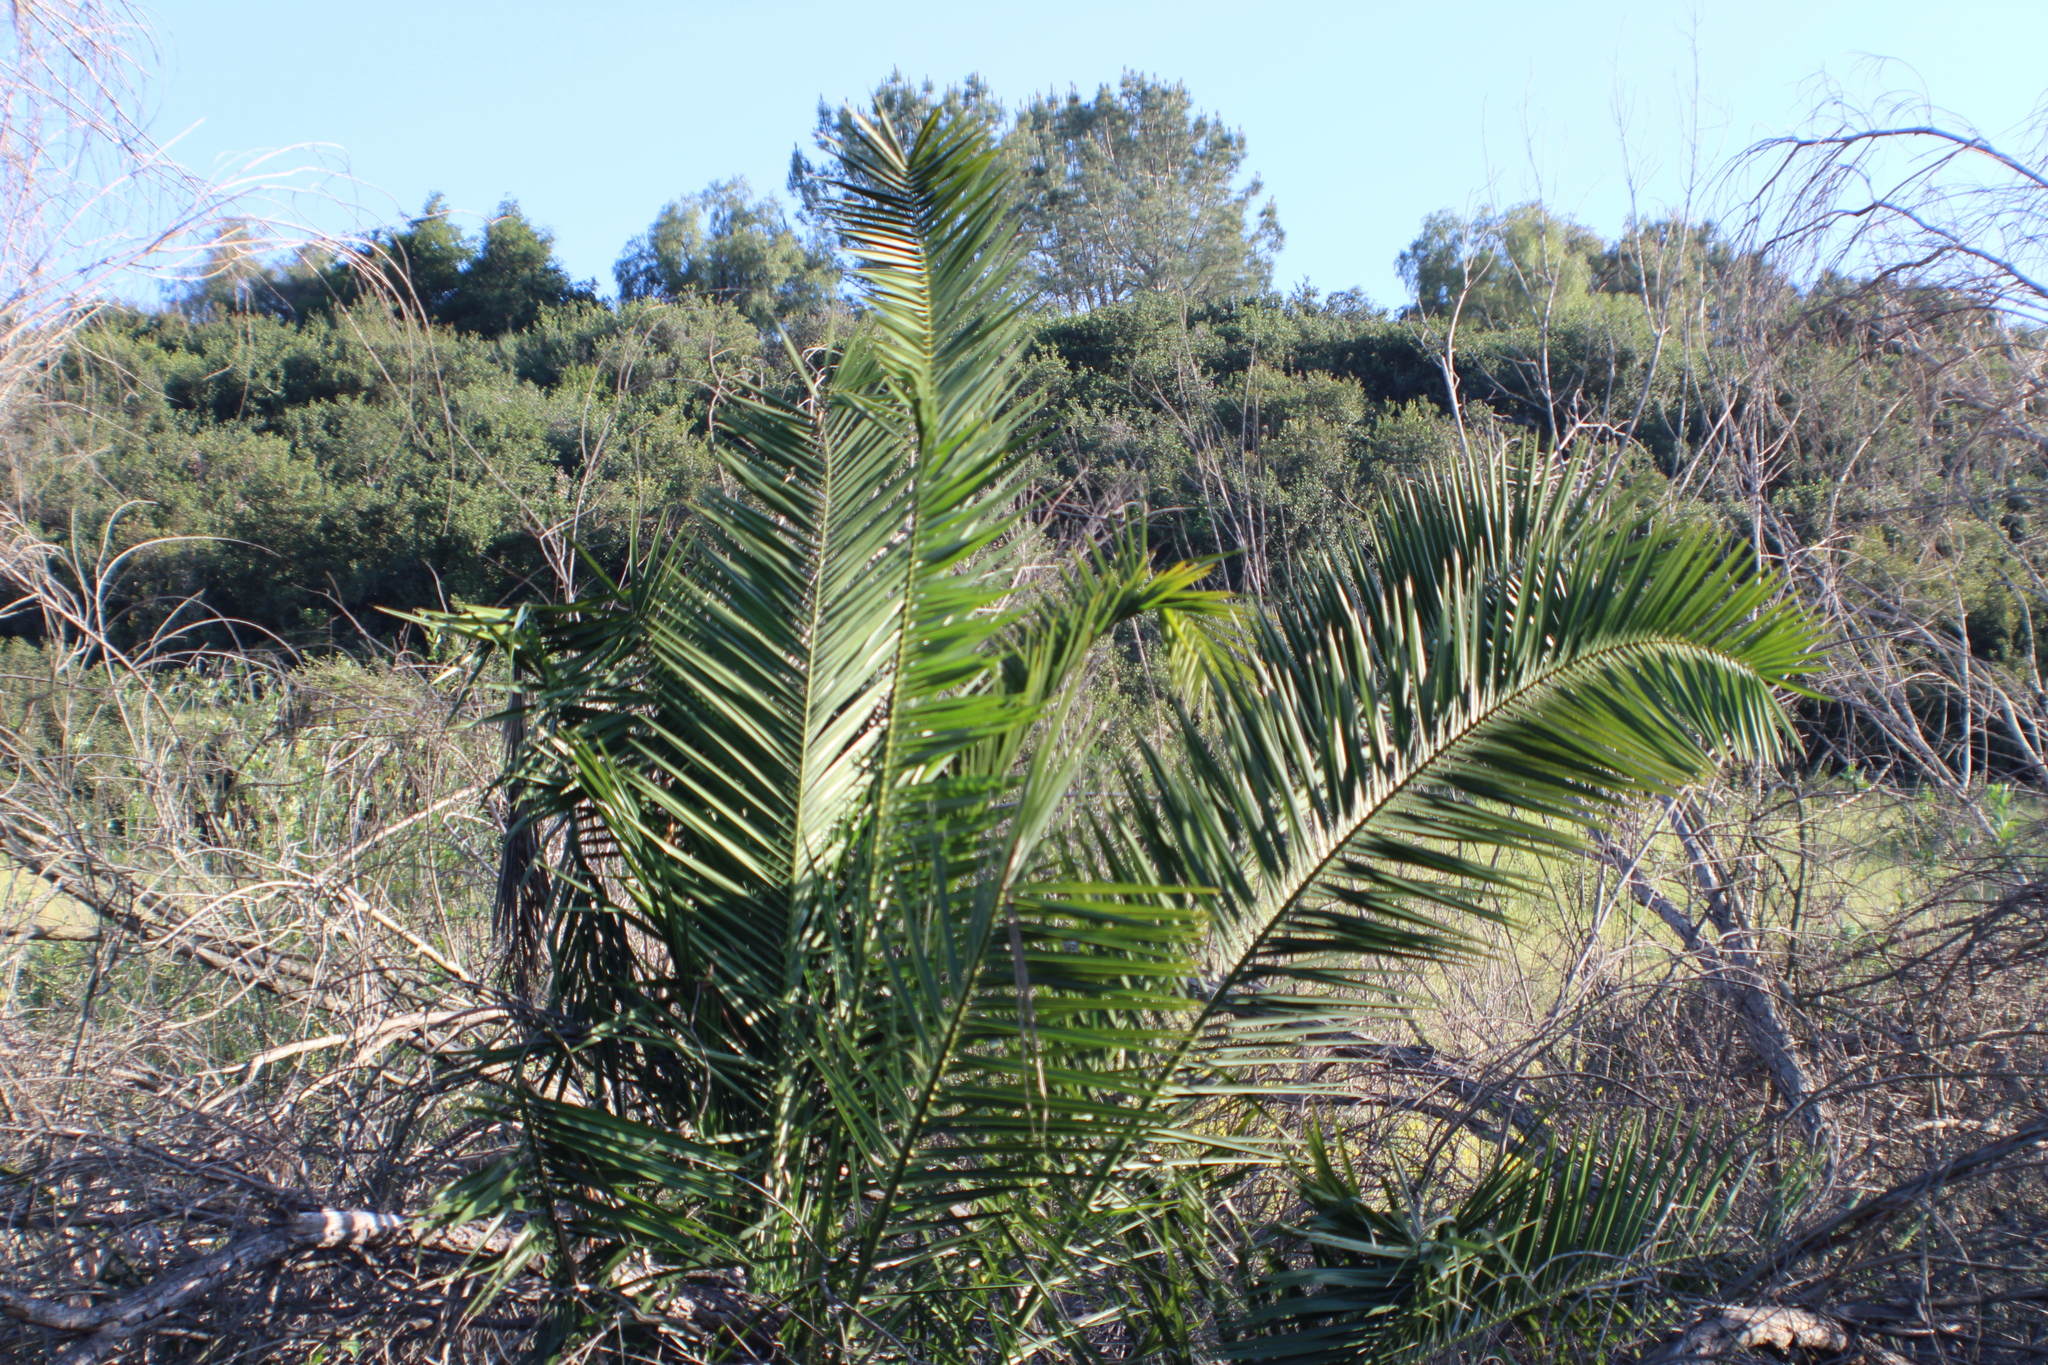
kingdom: Plantae
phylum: Tracheophyta
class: Liliopsida
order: Arecales
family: Arecaceae
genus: Phoenix
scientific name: Phoenix canariensis
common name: Canary island date palm
